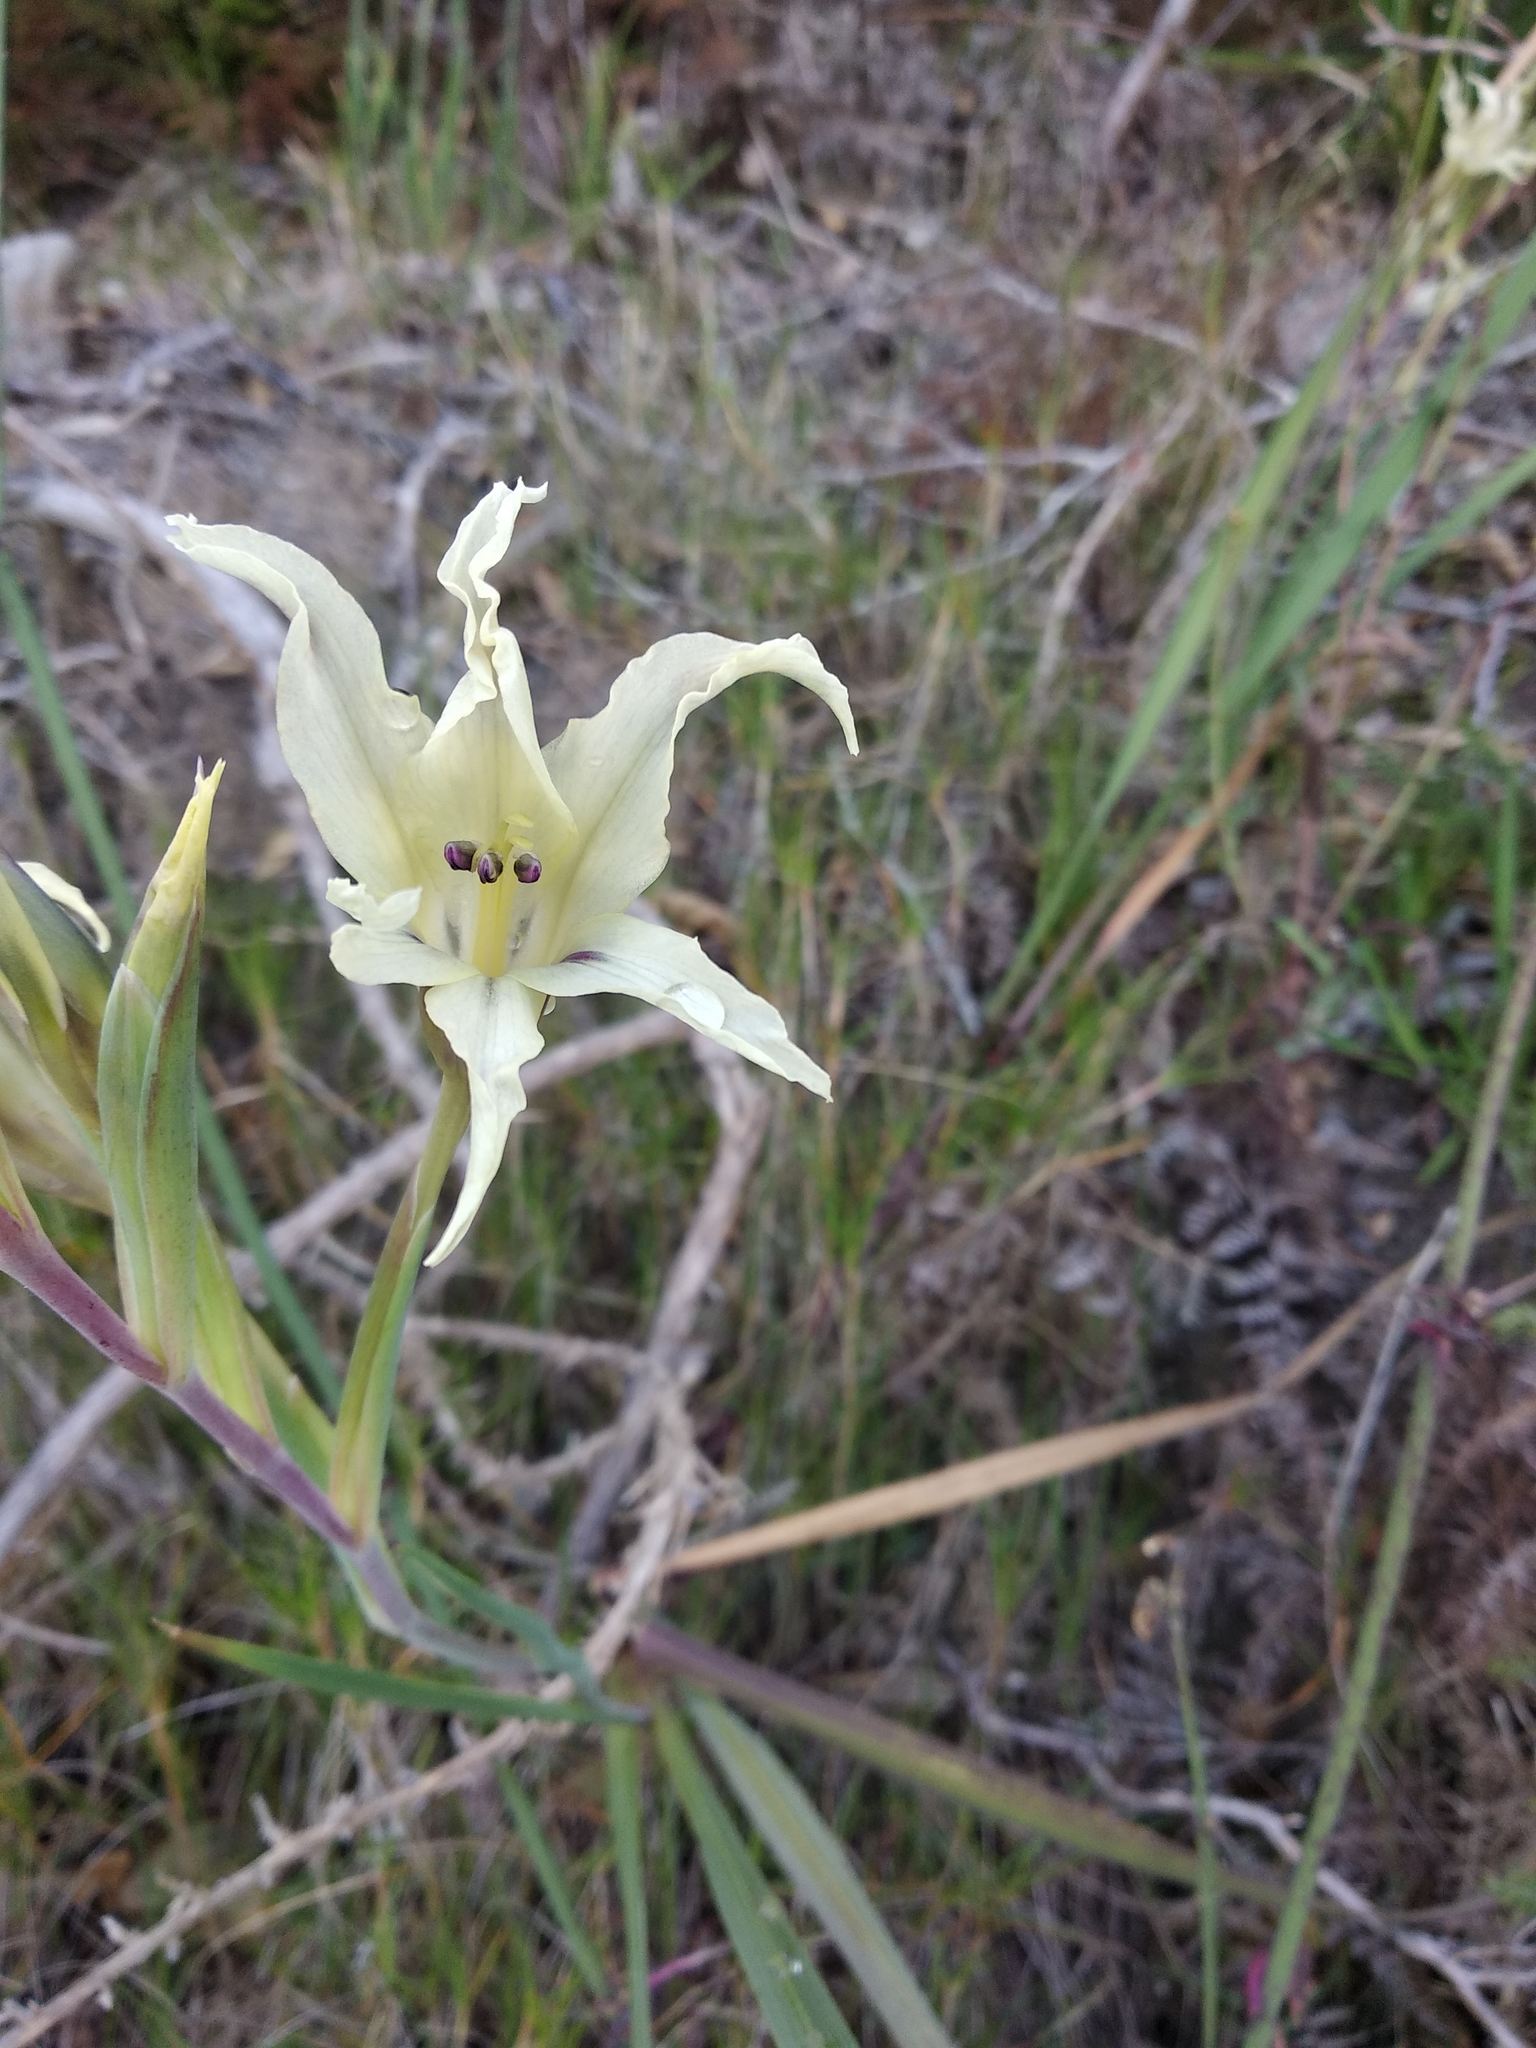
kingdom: Plantae
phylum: Tracheophyta
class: Liliopsida
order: Asparagales
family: Iridaceae
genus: Gladiolus
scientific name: Gladiolus undulatus
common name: Large painted-lady
